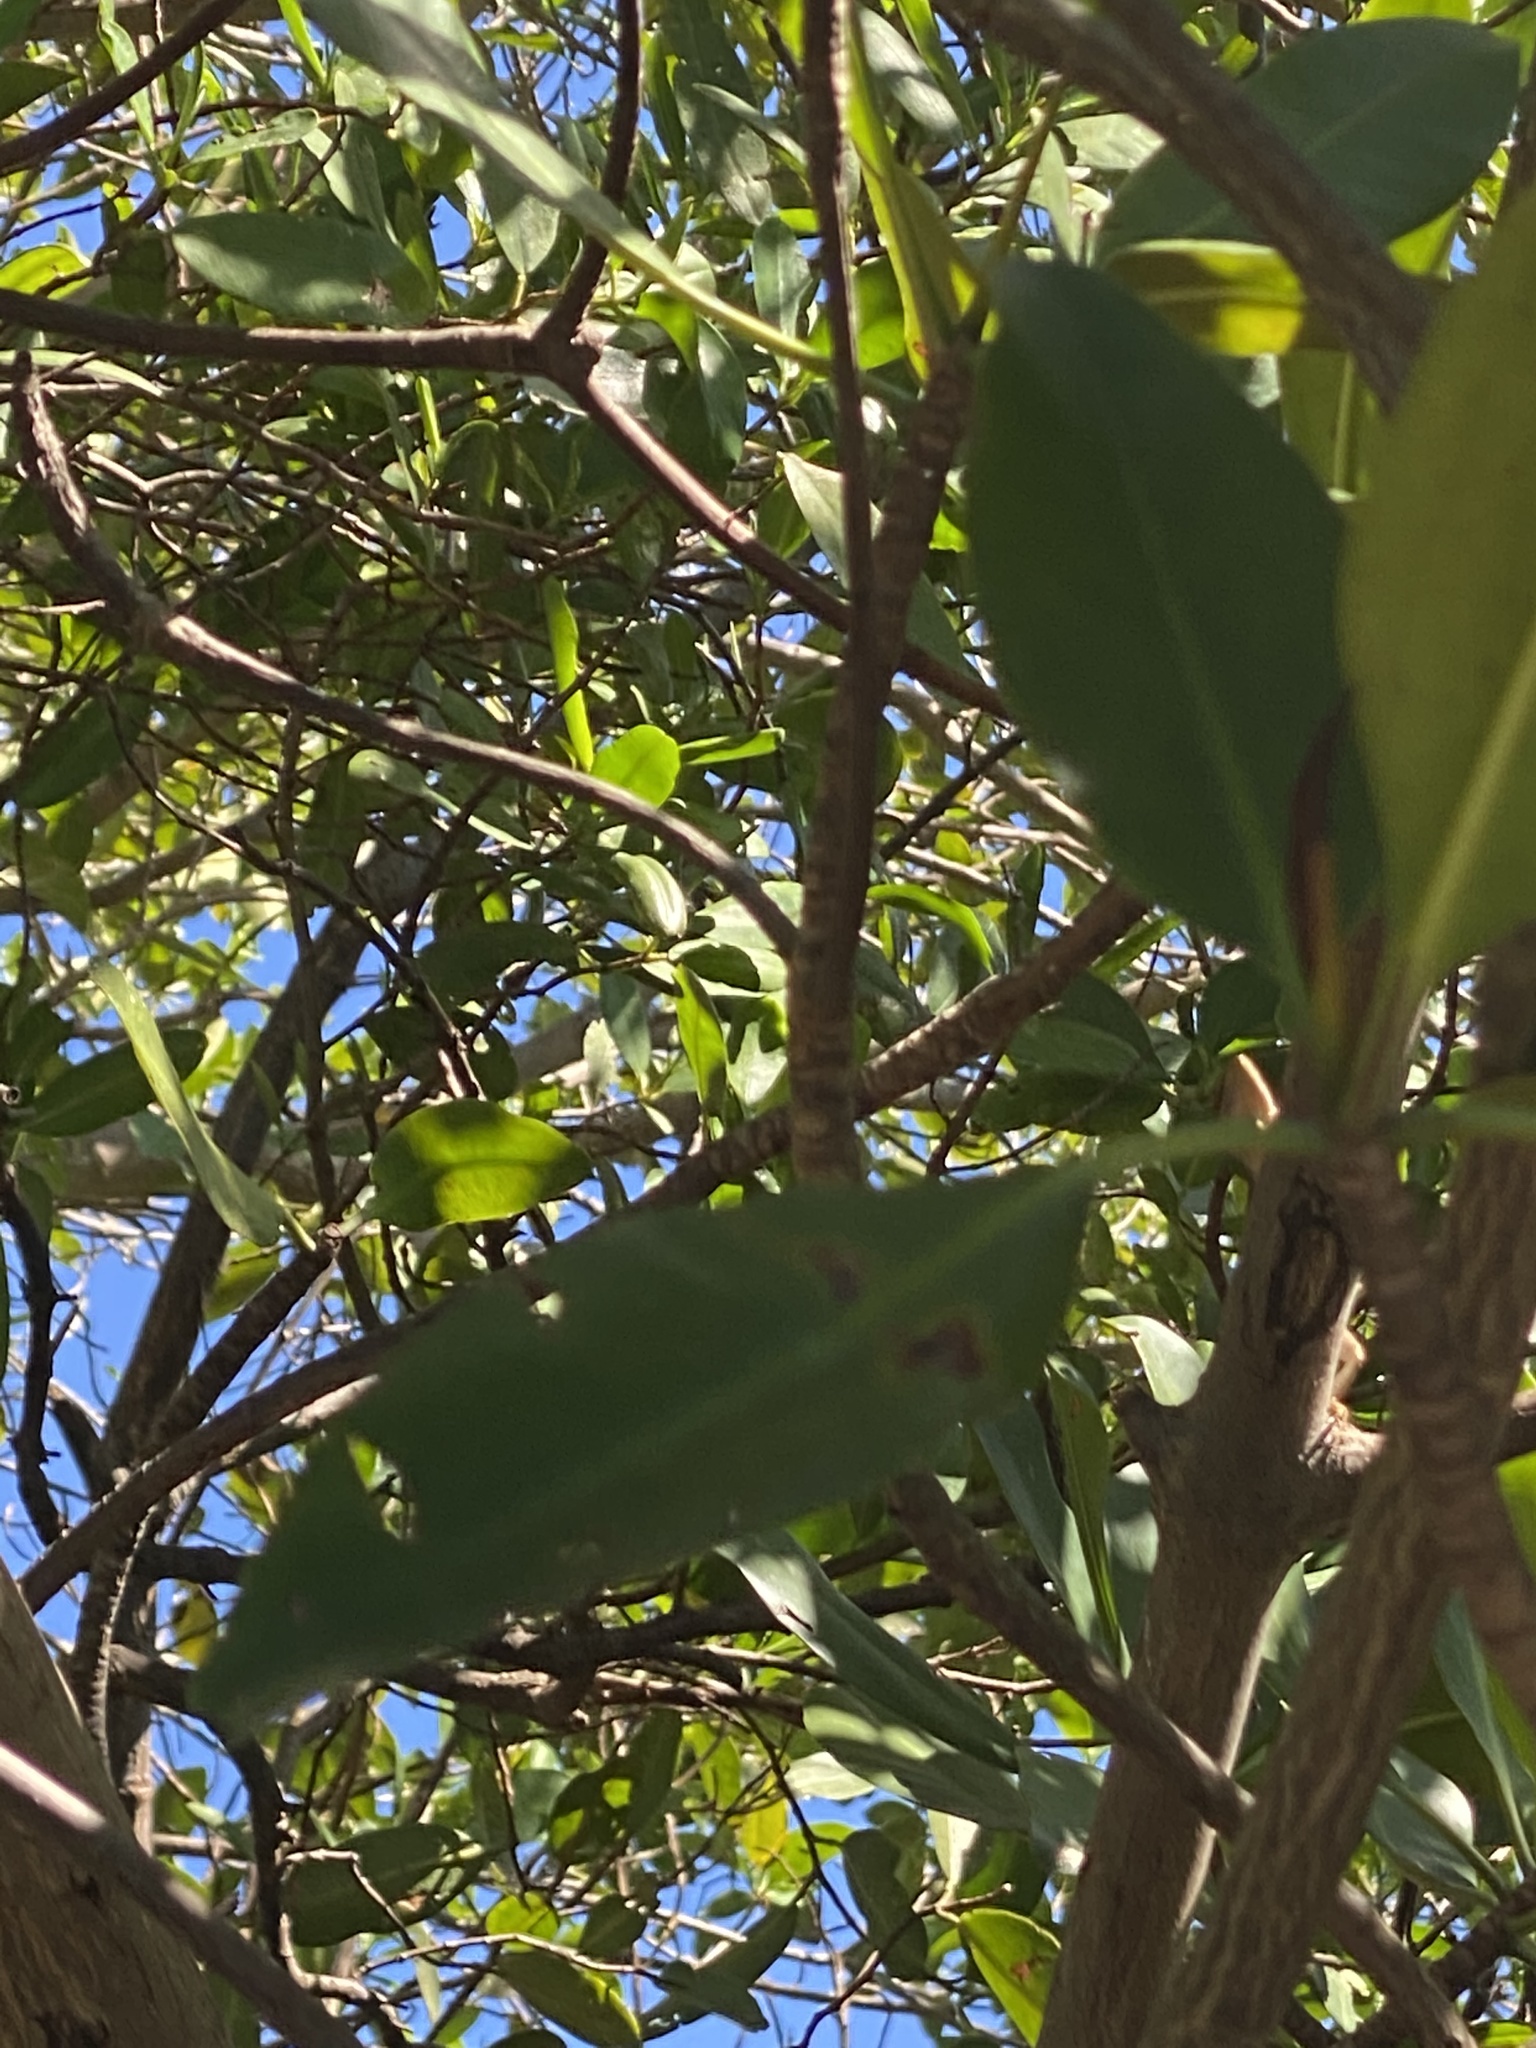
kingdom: Plantae
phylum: Tracheophyta
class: Magnoliopsida
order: Malpighiales
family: Rhizophoraceae
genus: Rhizophora
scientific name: Rhizophora mangle
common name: Red mangrove
